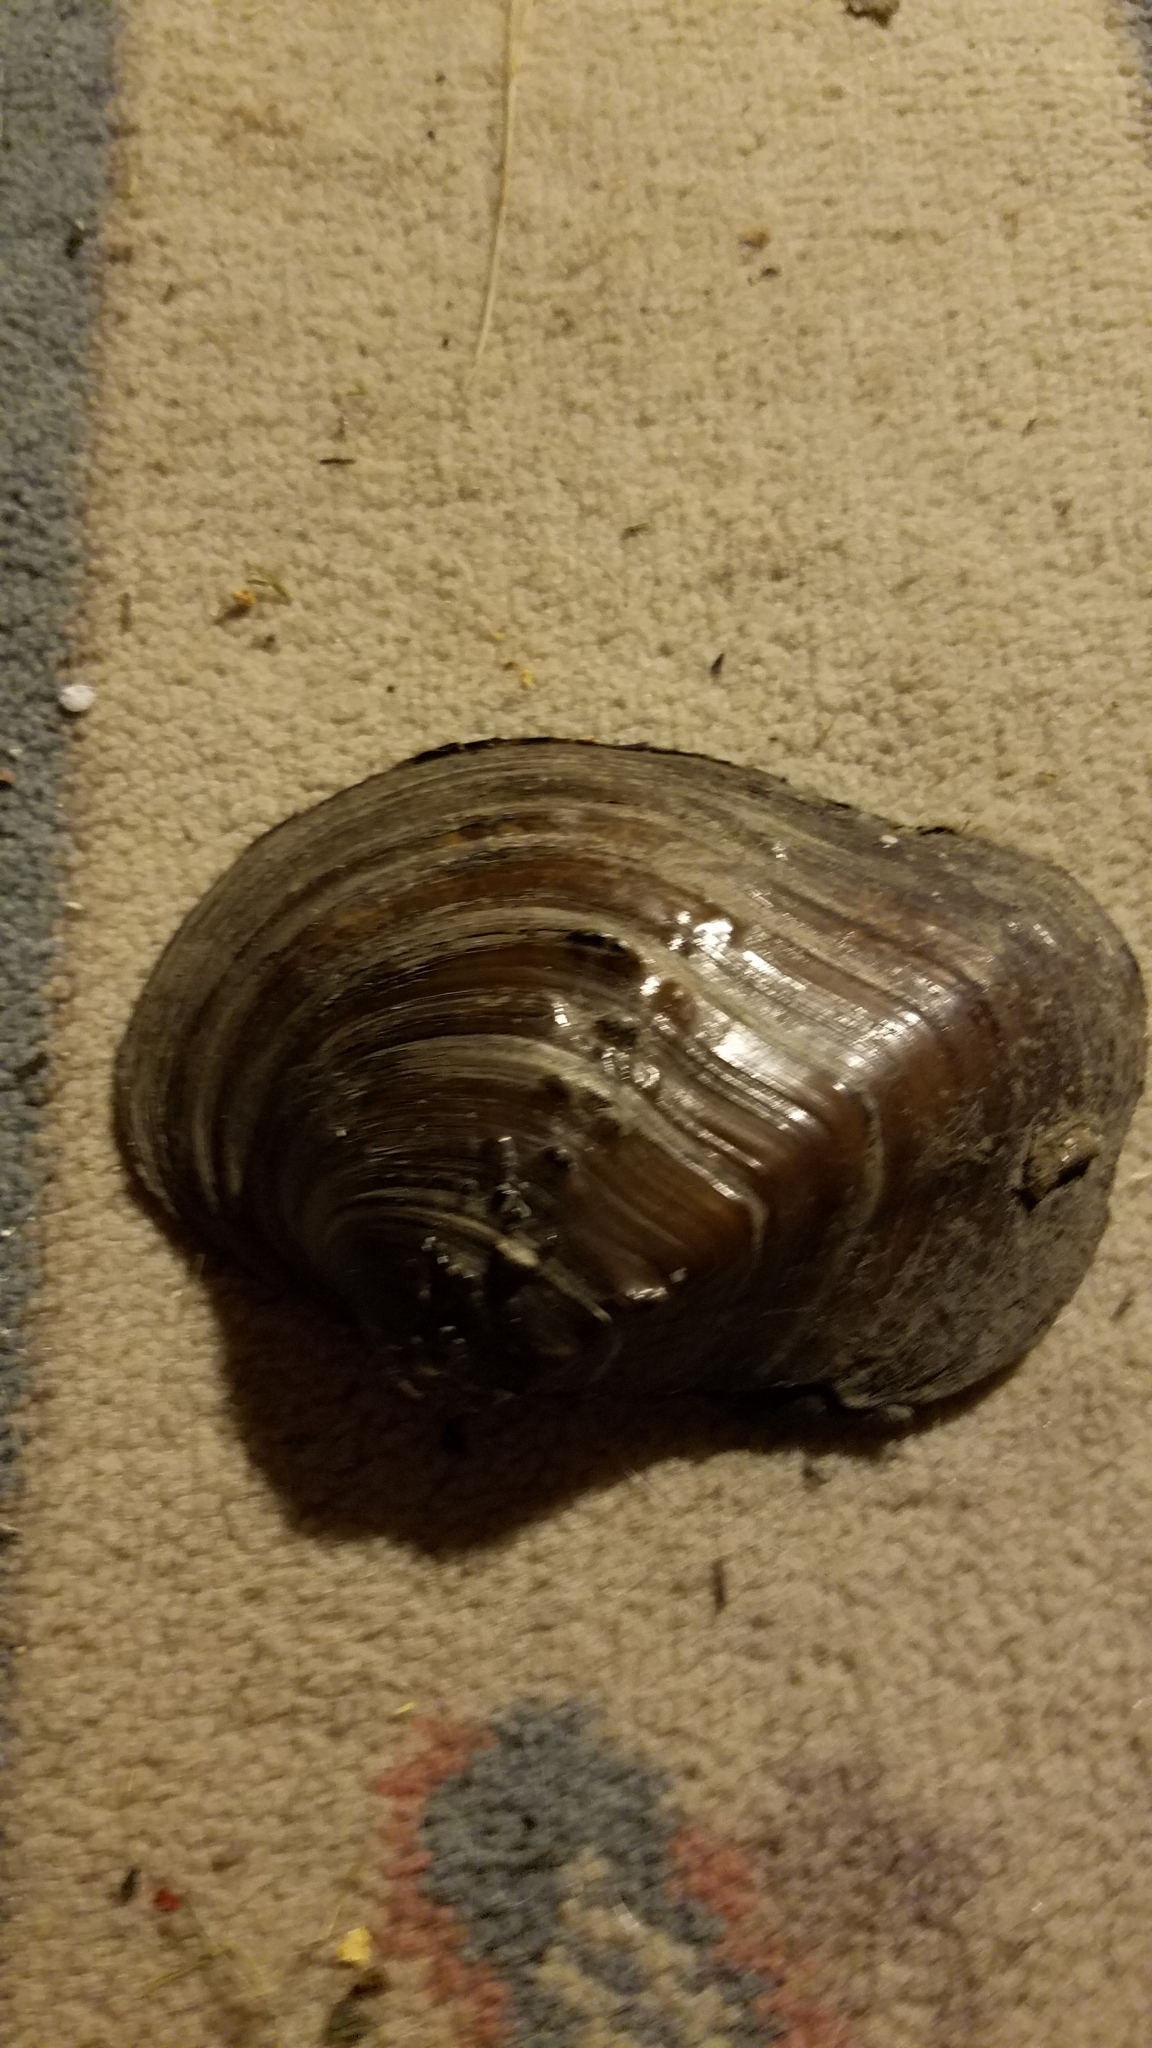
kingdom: Animalia
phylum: Mollusca
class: Bivalvia
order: Unionida
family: Unionidae
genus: Quadrula
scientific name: Quadrula quadrula
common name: Mapleleaf
